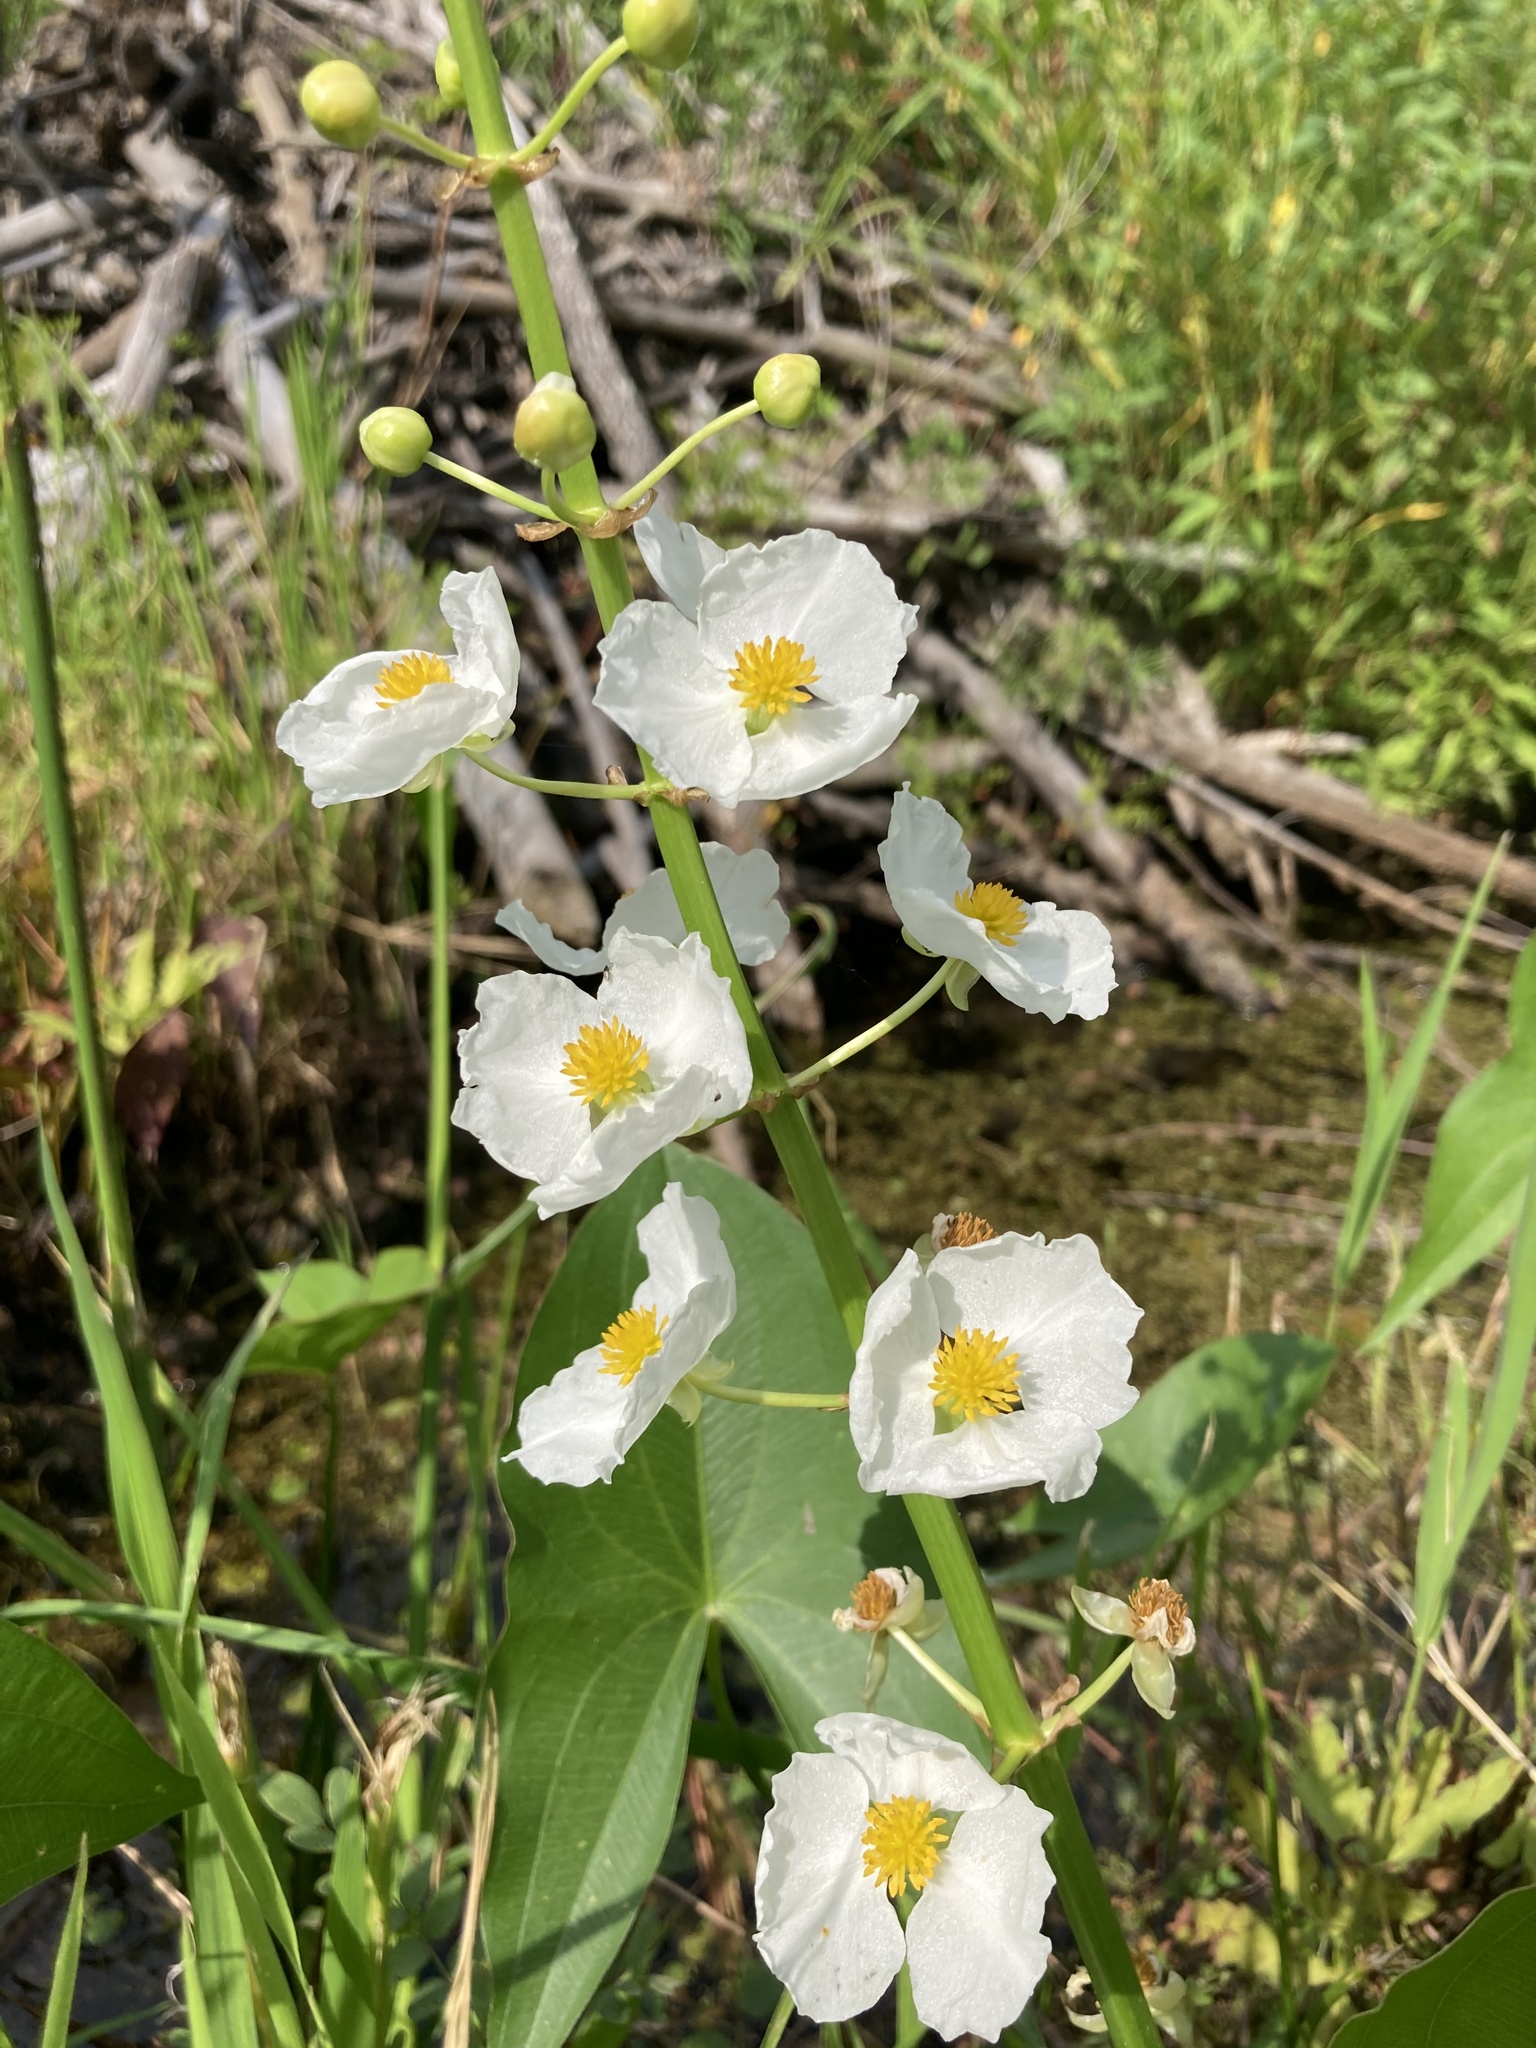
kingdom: Plantae
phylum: Tracheophyta
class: Liliopsida
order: Alismatales
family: Alismataceae
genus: Sagittaria
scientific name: Sagittaria latifolia
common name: Duck-potato
